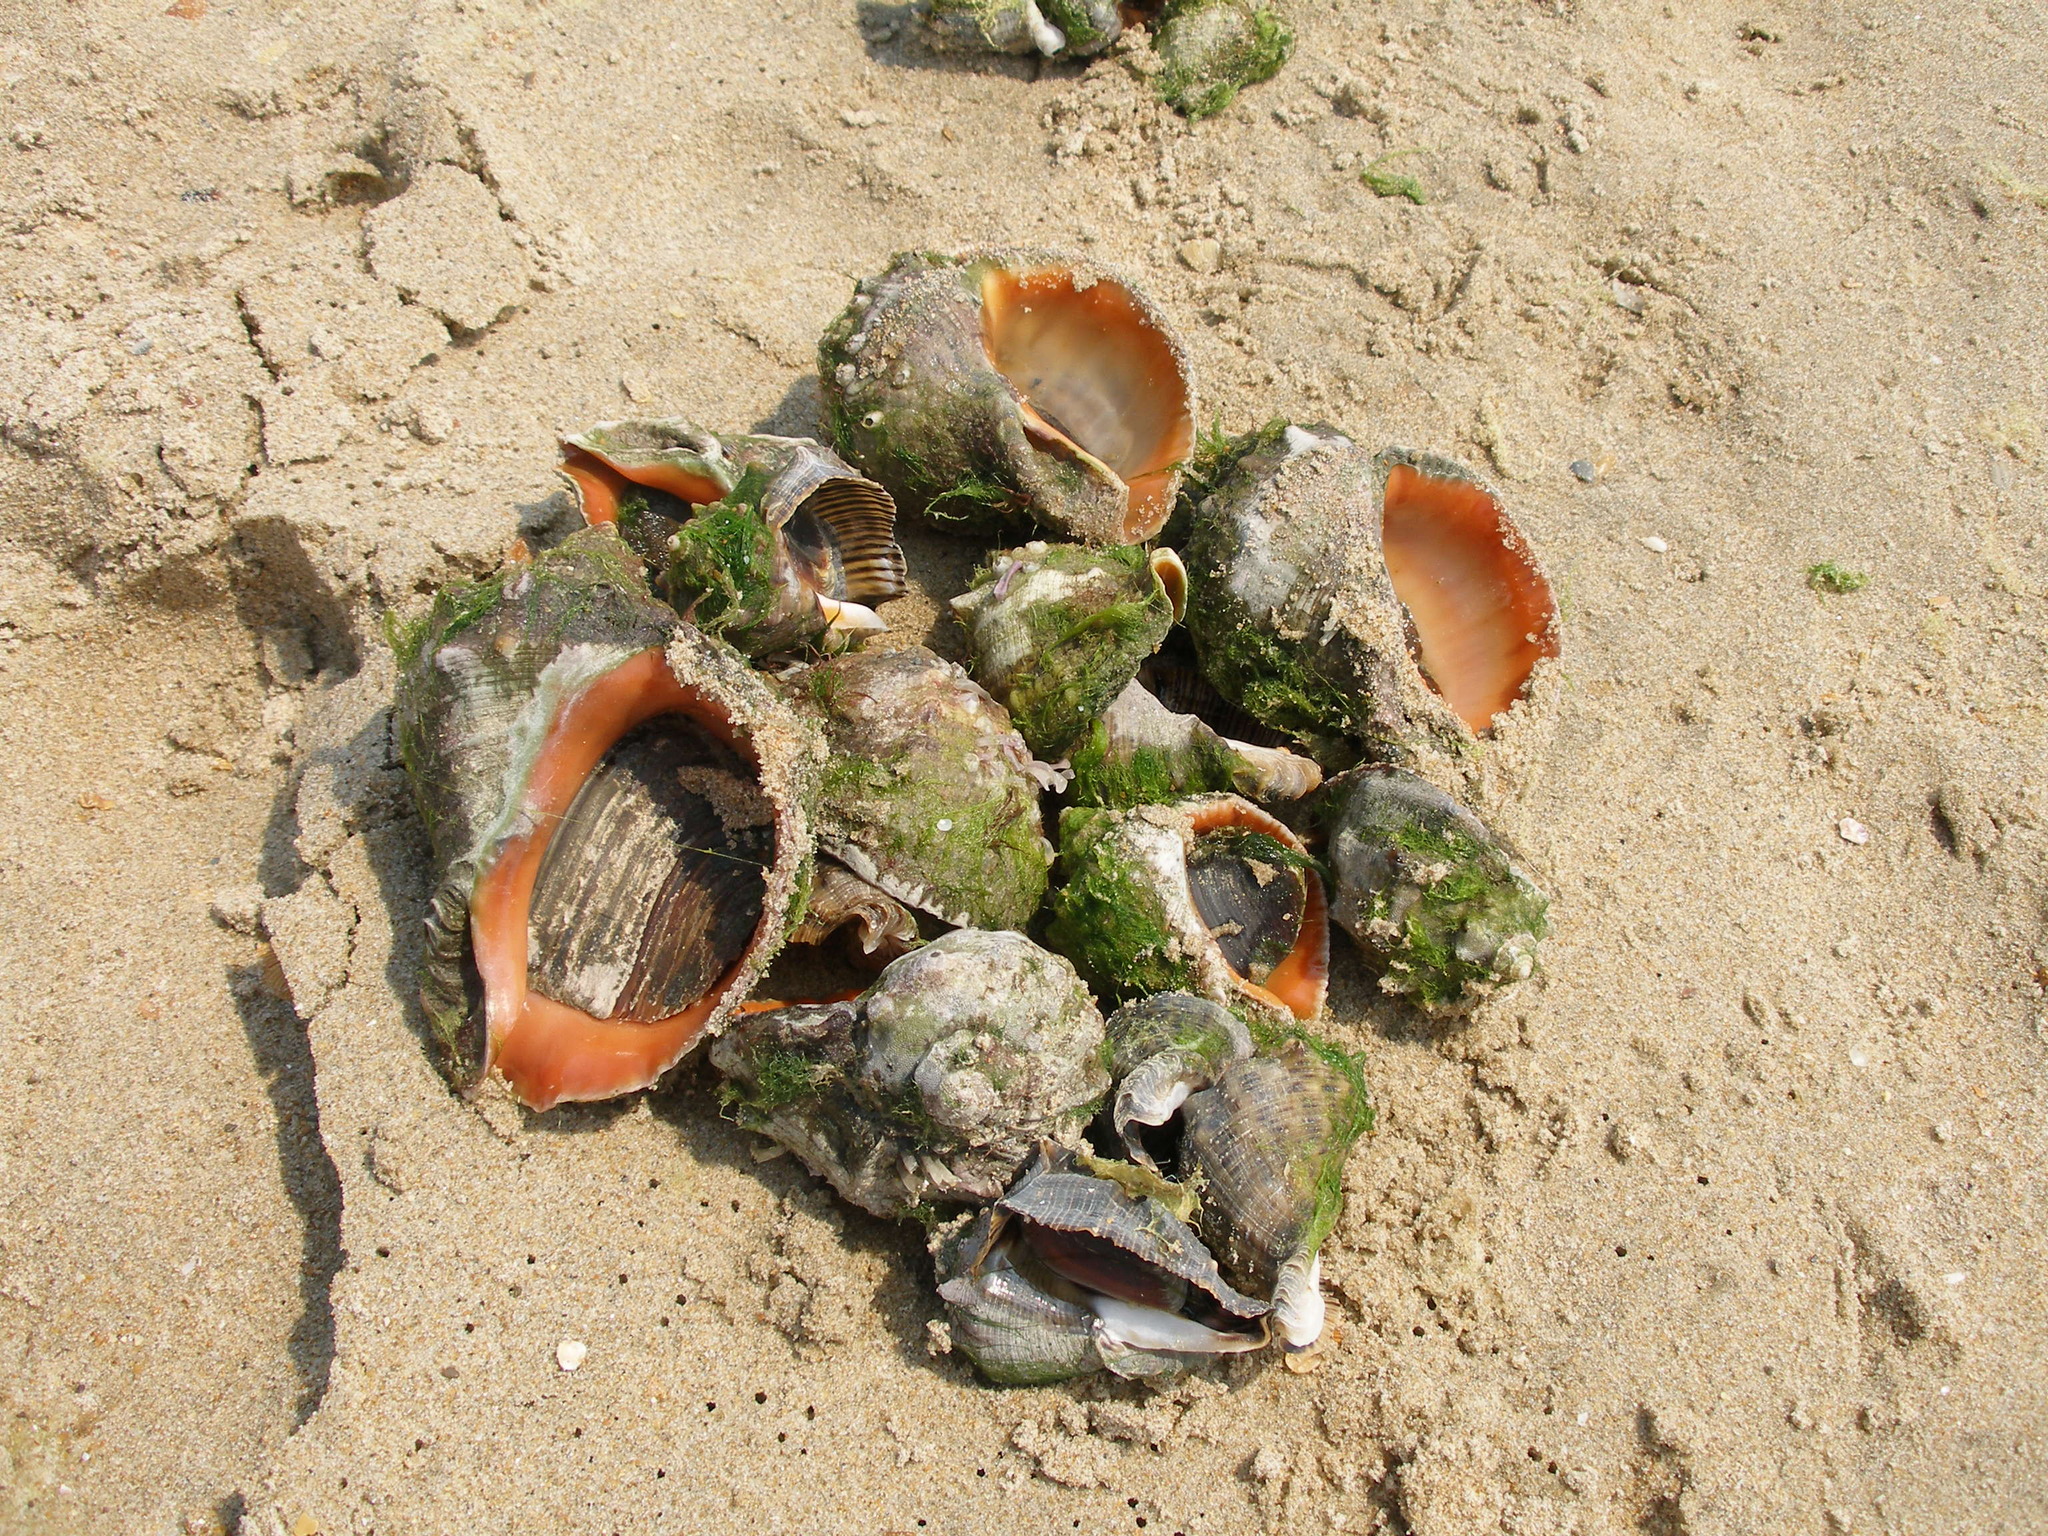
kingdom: Animalia
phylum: Mollusca
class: Gastropoda
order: Neogastropoda
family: Muricidae
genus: Rapana
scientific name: Rapana venosa
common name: Veined rapa whelk
